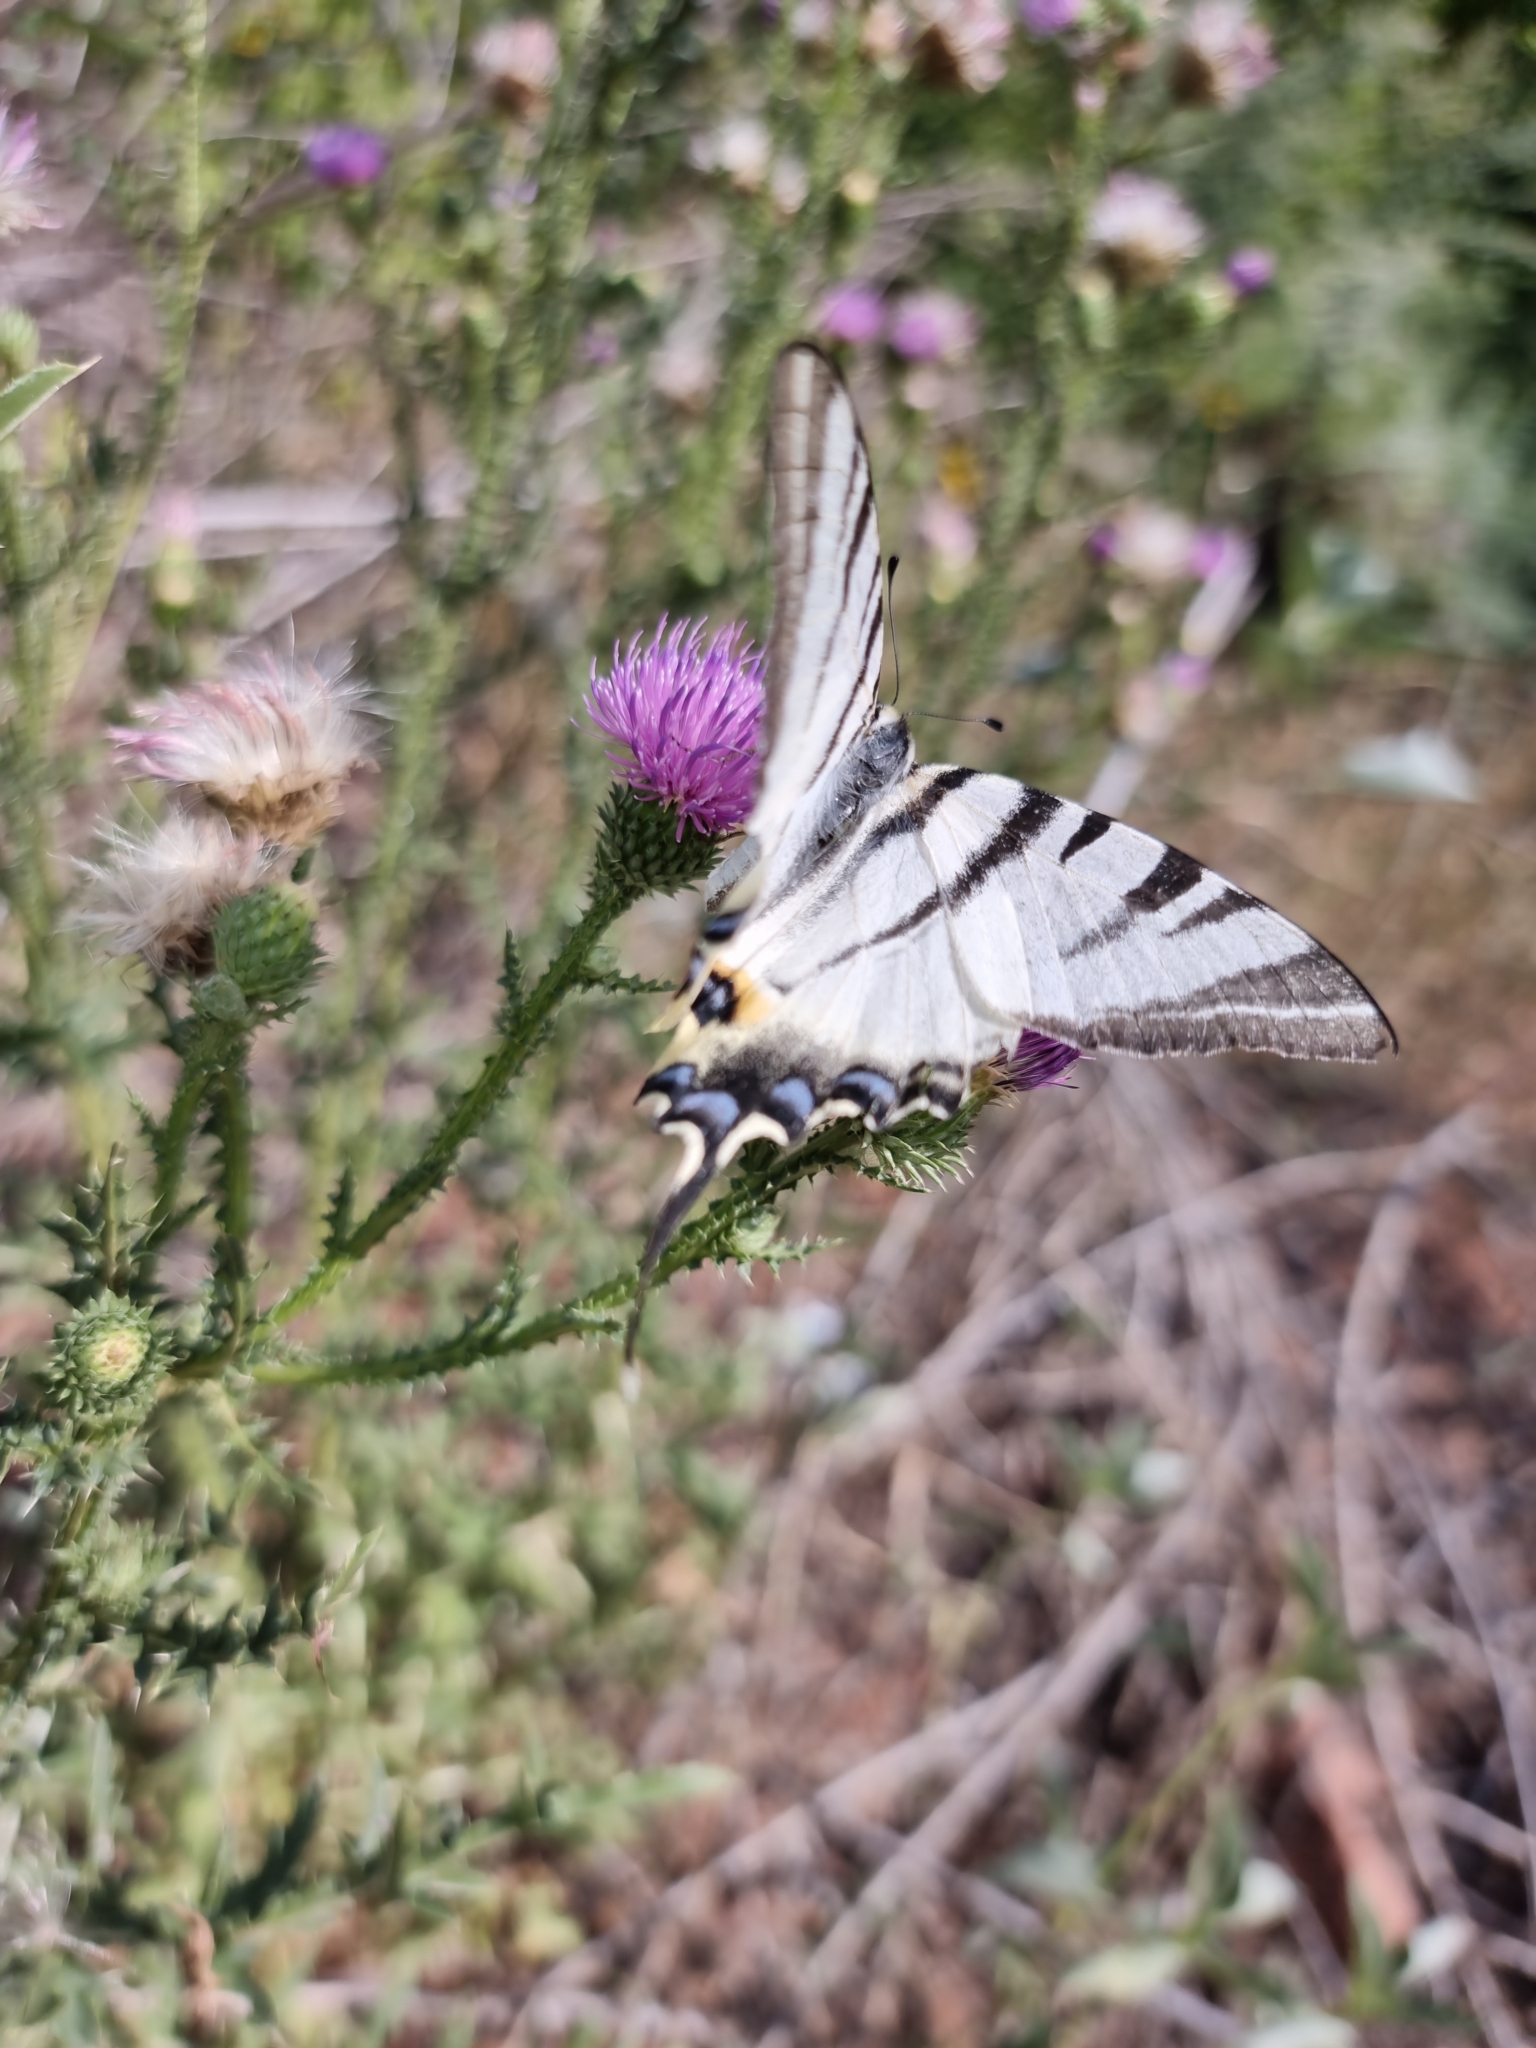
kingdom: Animalia
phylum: Arthropoda
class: Insecta
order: Lepidoptera
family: Papilionidae
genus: Iphiclides
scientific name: Iphiclides podalirius
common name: Scarce swallowtail
